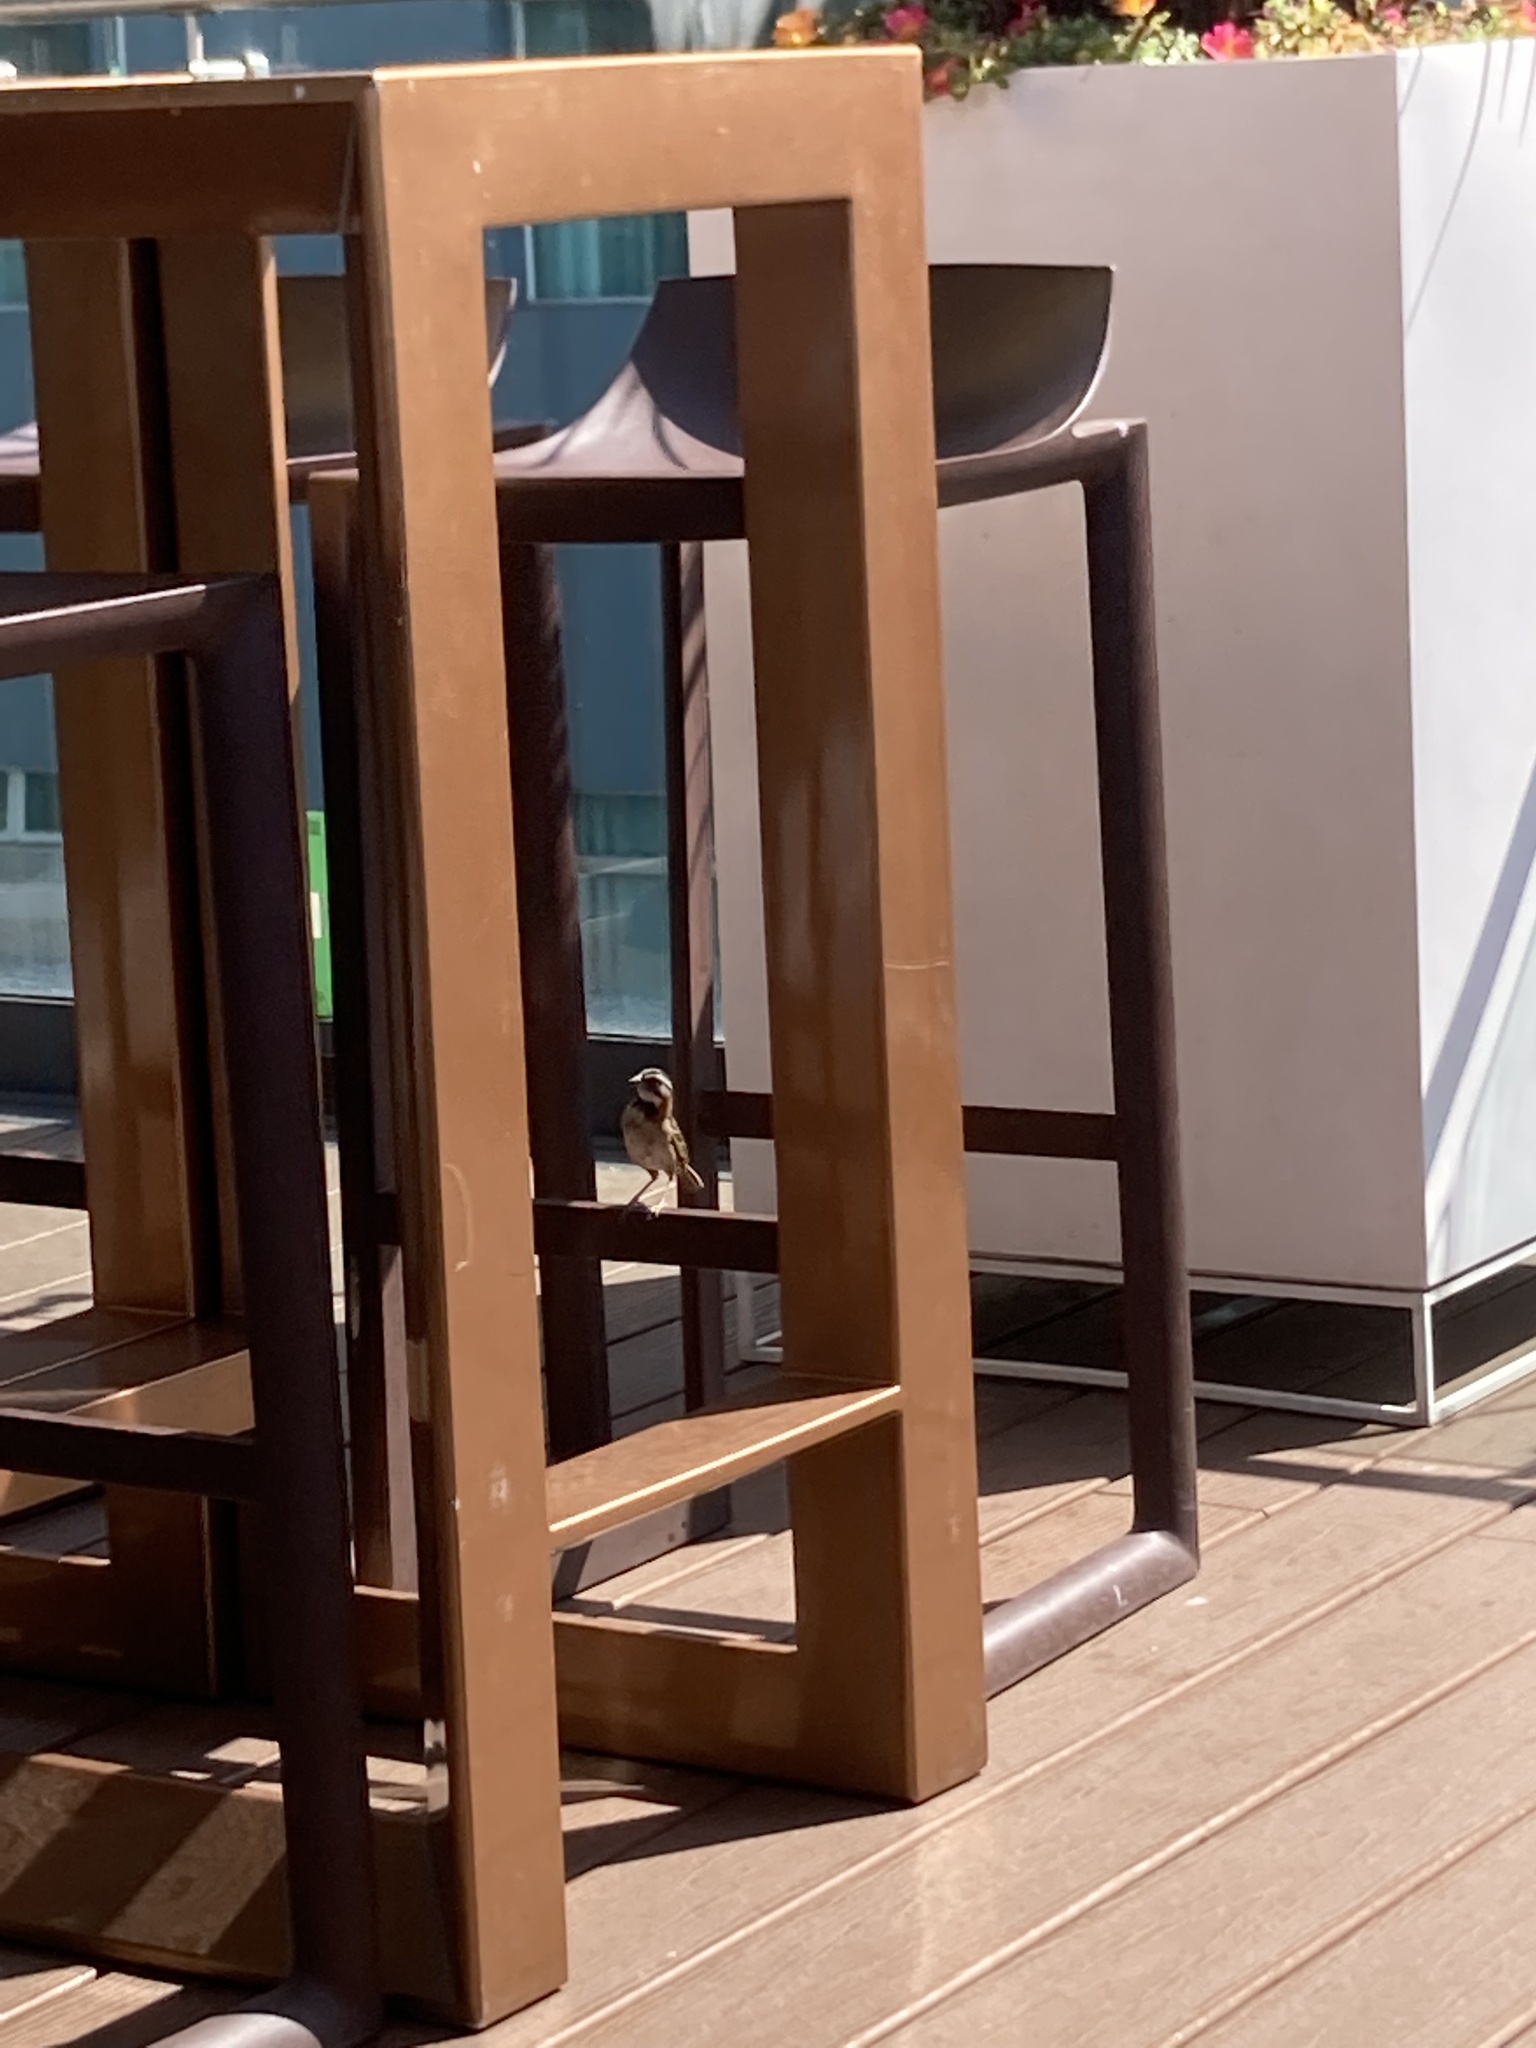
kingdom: Animalia
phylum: Chordata
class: Aves
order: Passeriformes
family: Passerellidae
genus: Zonotrichia
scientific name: Zonotrichia capensis
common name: Rufous-collared sparrow
